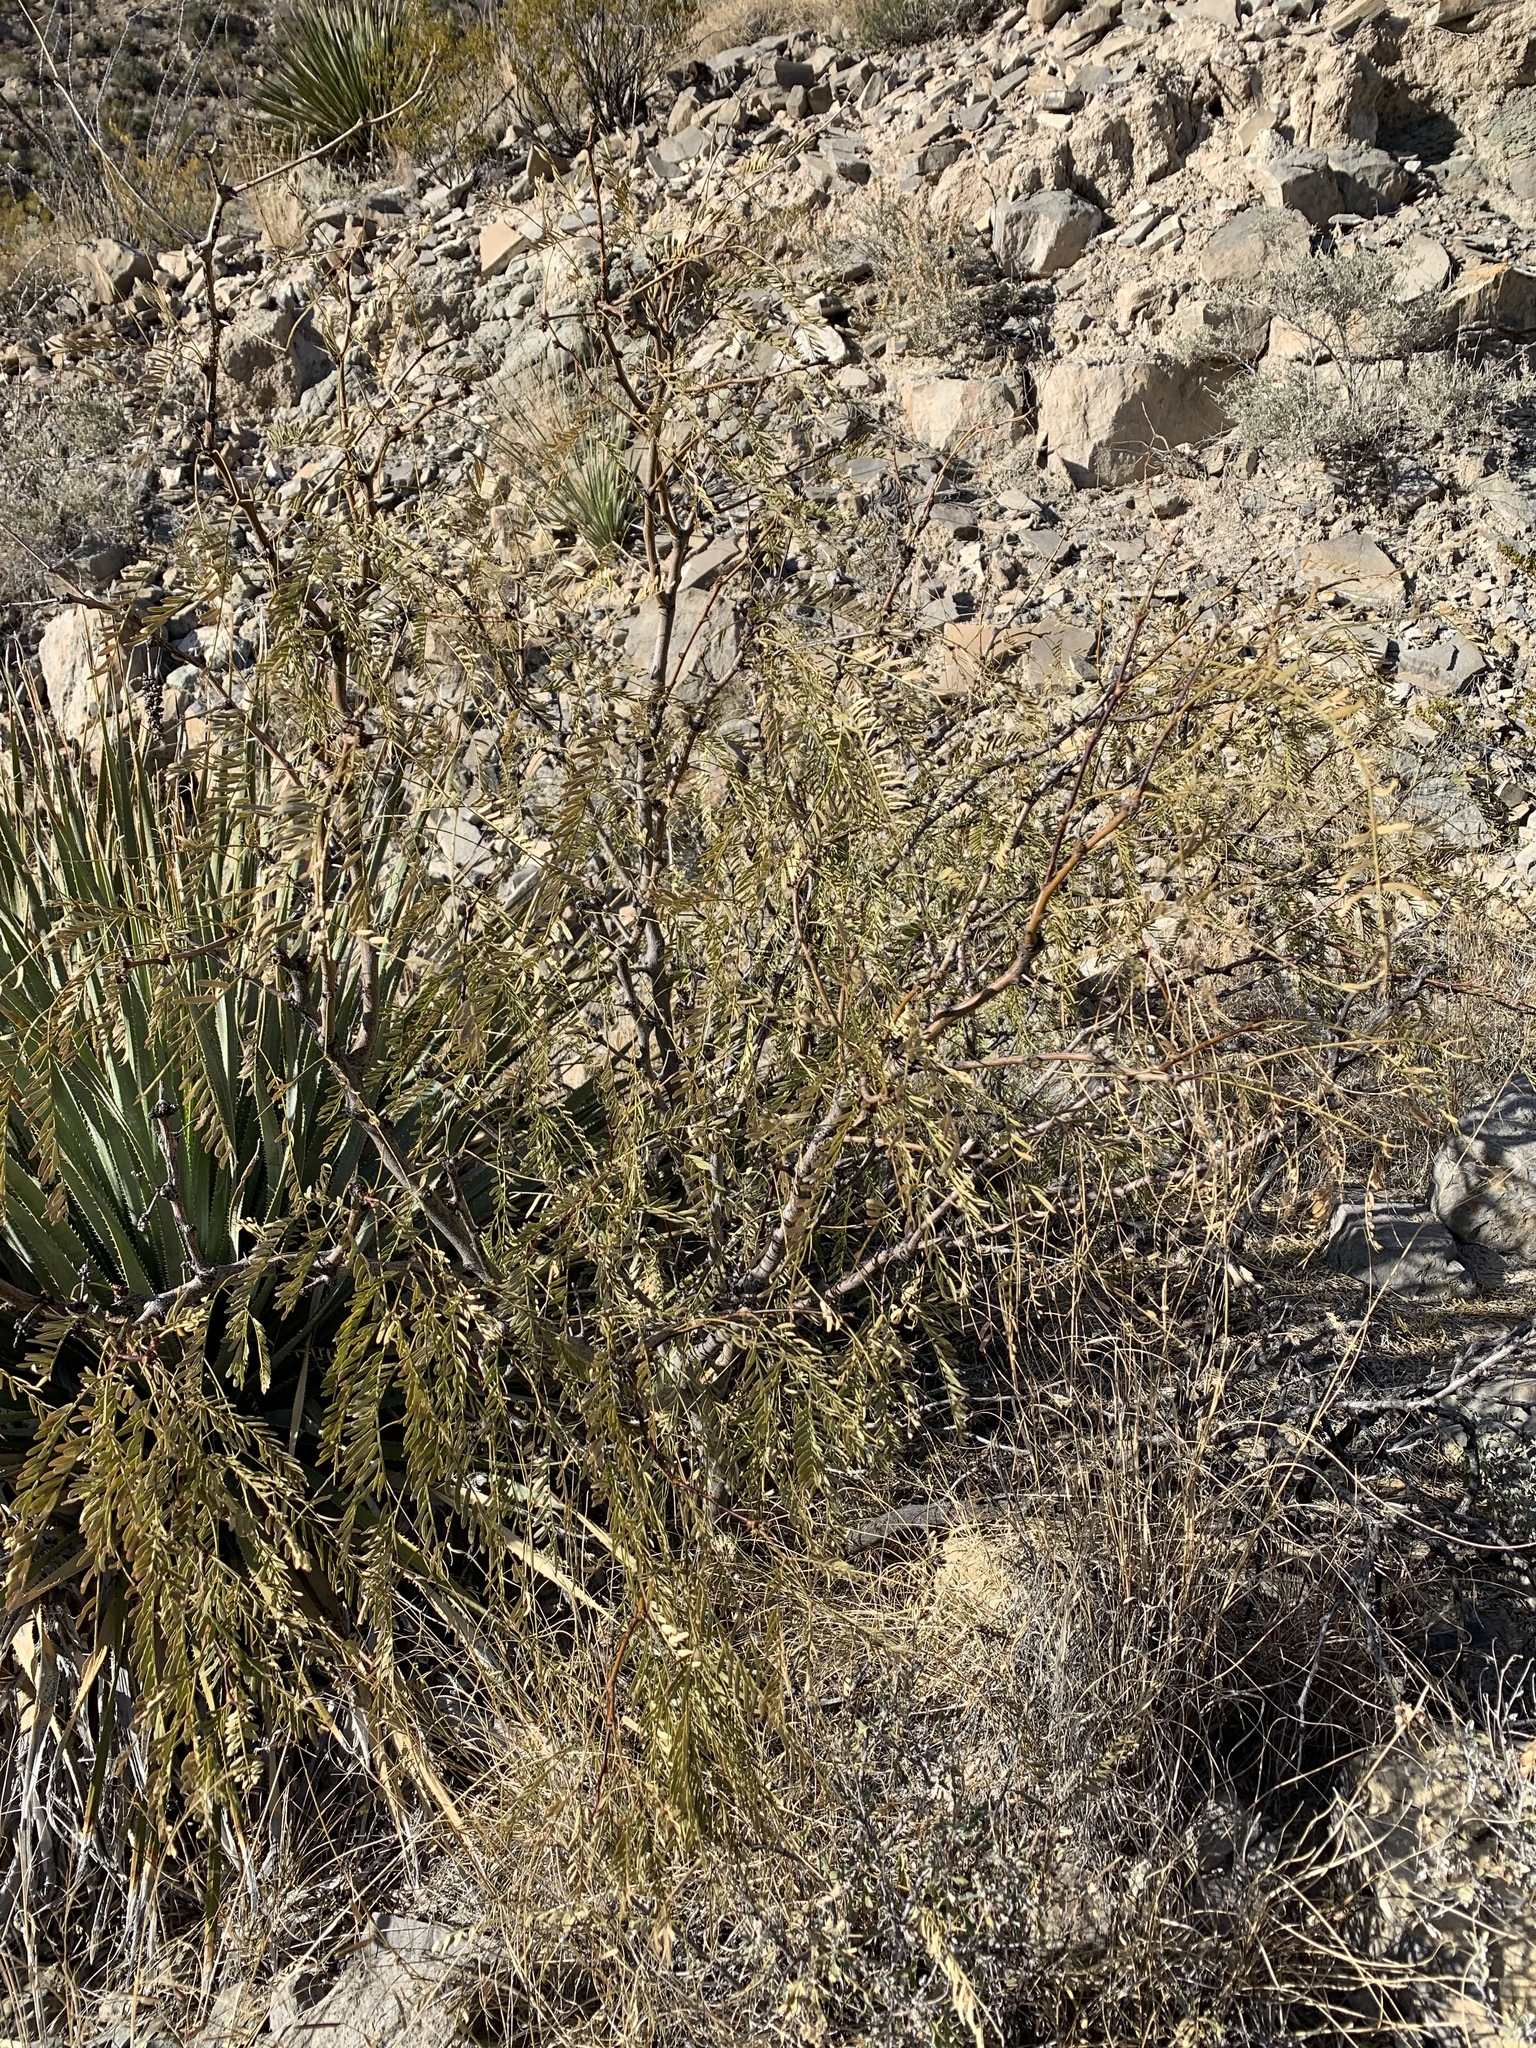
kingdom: Plantae
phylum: Tracheophyta
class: Magnoliopsida
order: Fabales
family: Fabaceae
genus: Prosopis
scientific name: Prosopis glandulosa
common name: Honey mesquite
